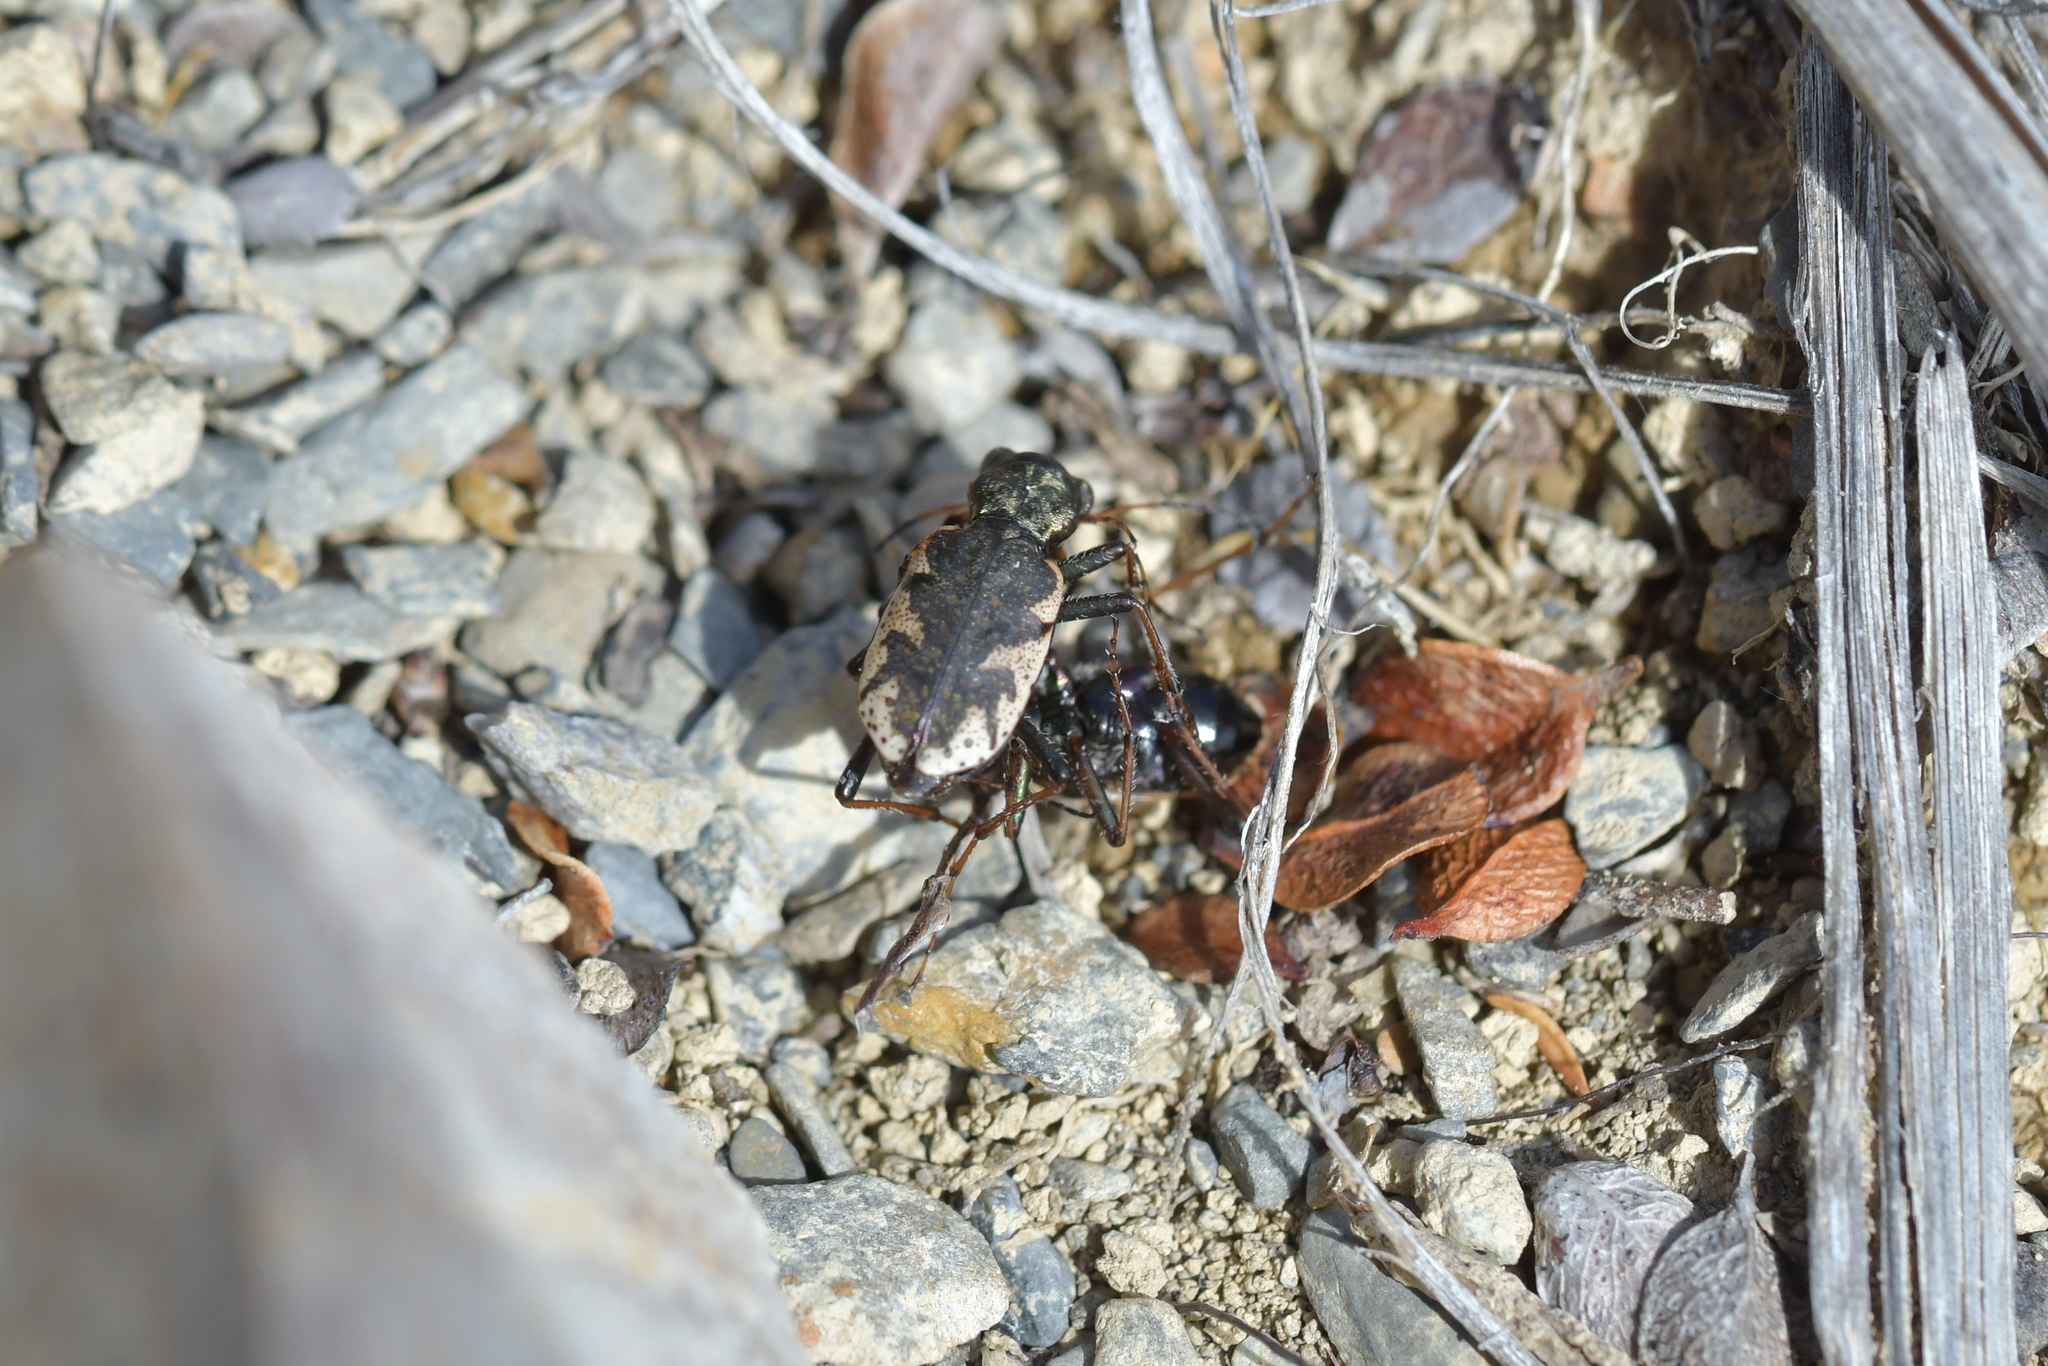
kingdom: Animalia
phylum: Arthropoda
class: Insecta
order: Coleoptera
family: Carabidae
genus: Neocicindela
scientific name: Neocicindela garnerae
